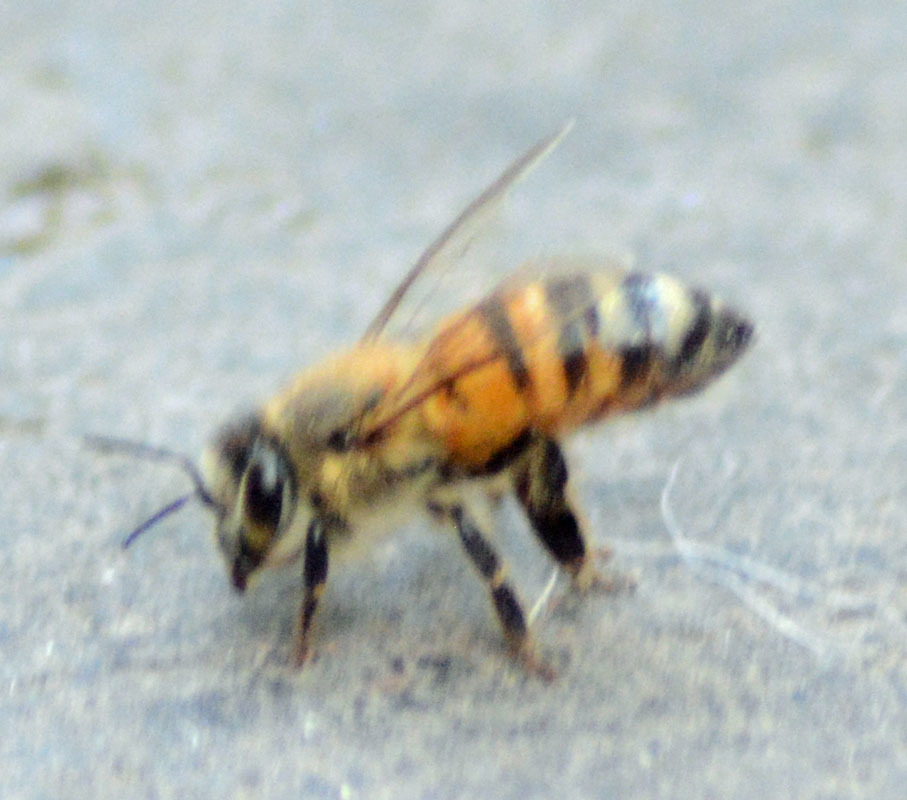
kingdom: Animalia
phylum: Arthropoda
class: Insecta
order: Hymenoptera
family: Apidae
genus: Apis
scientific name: Apis mellifera
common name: Honey bee
